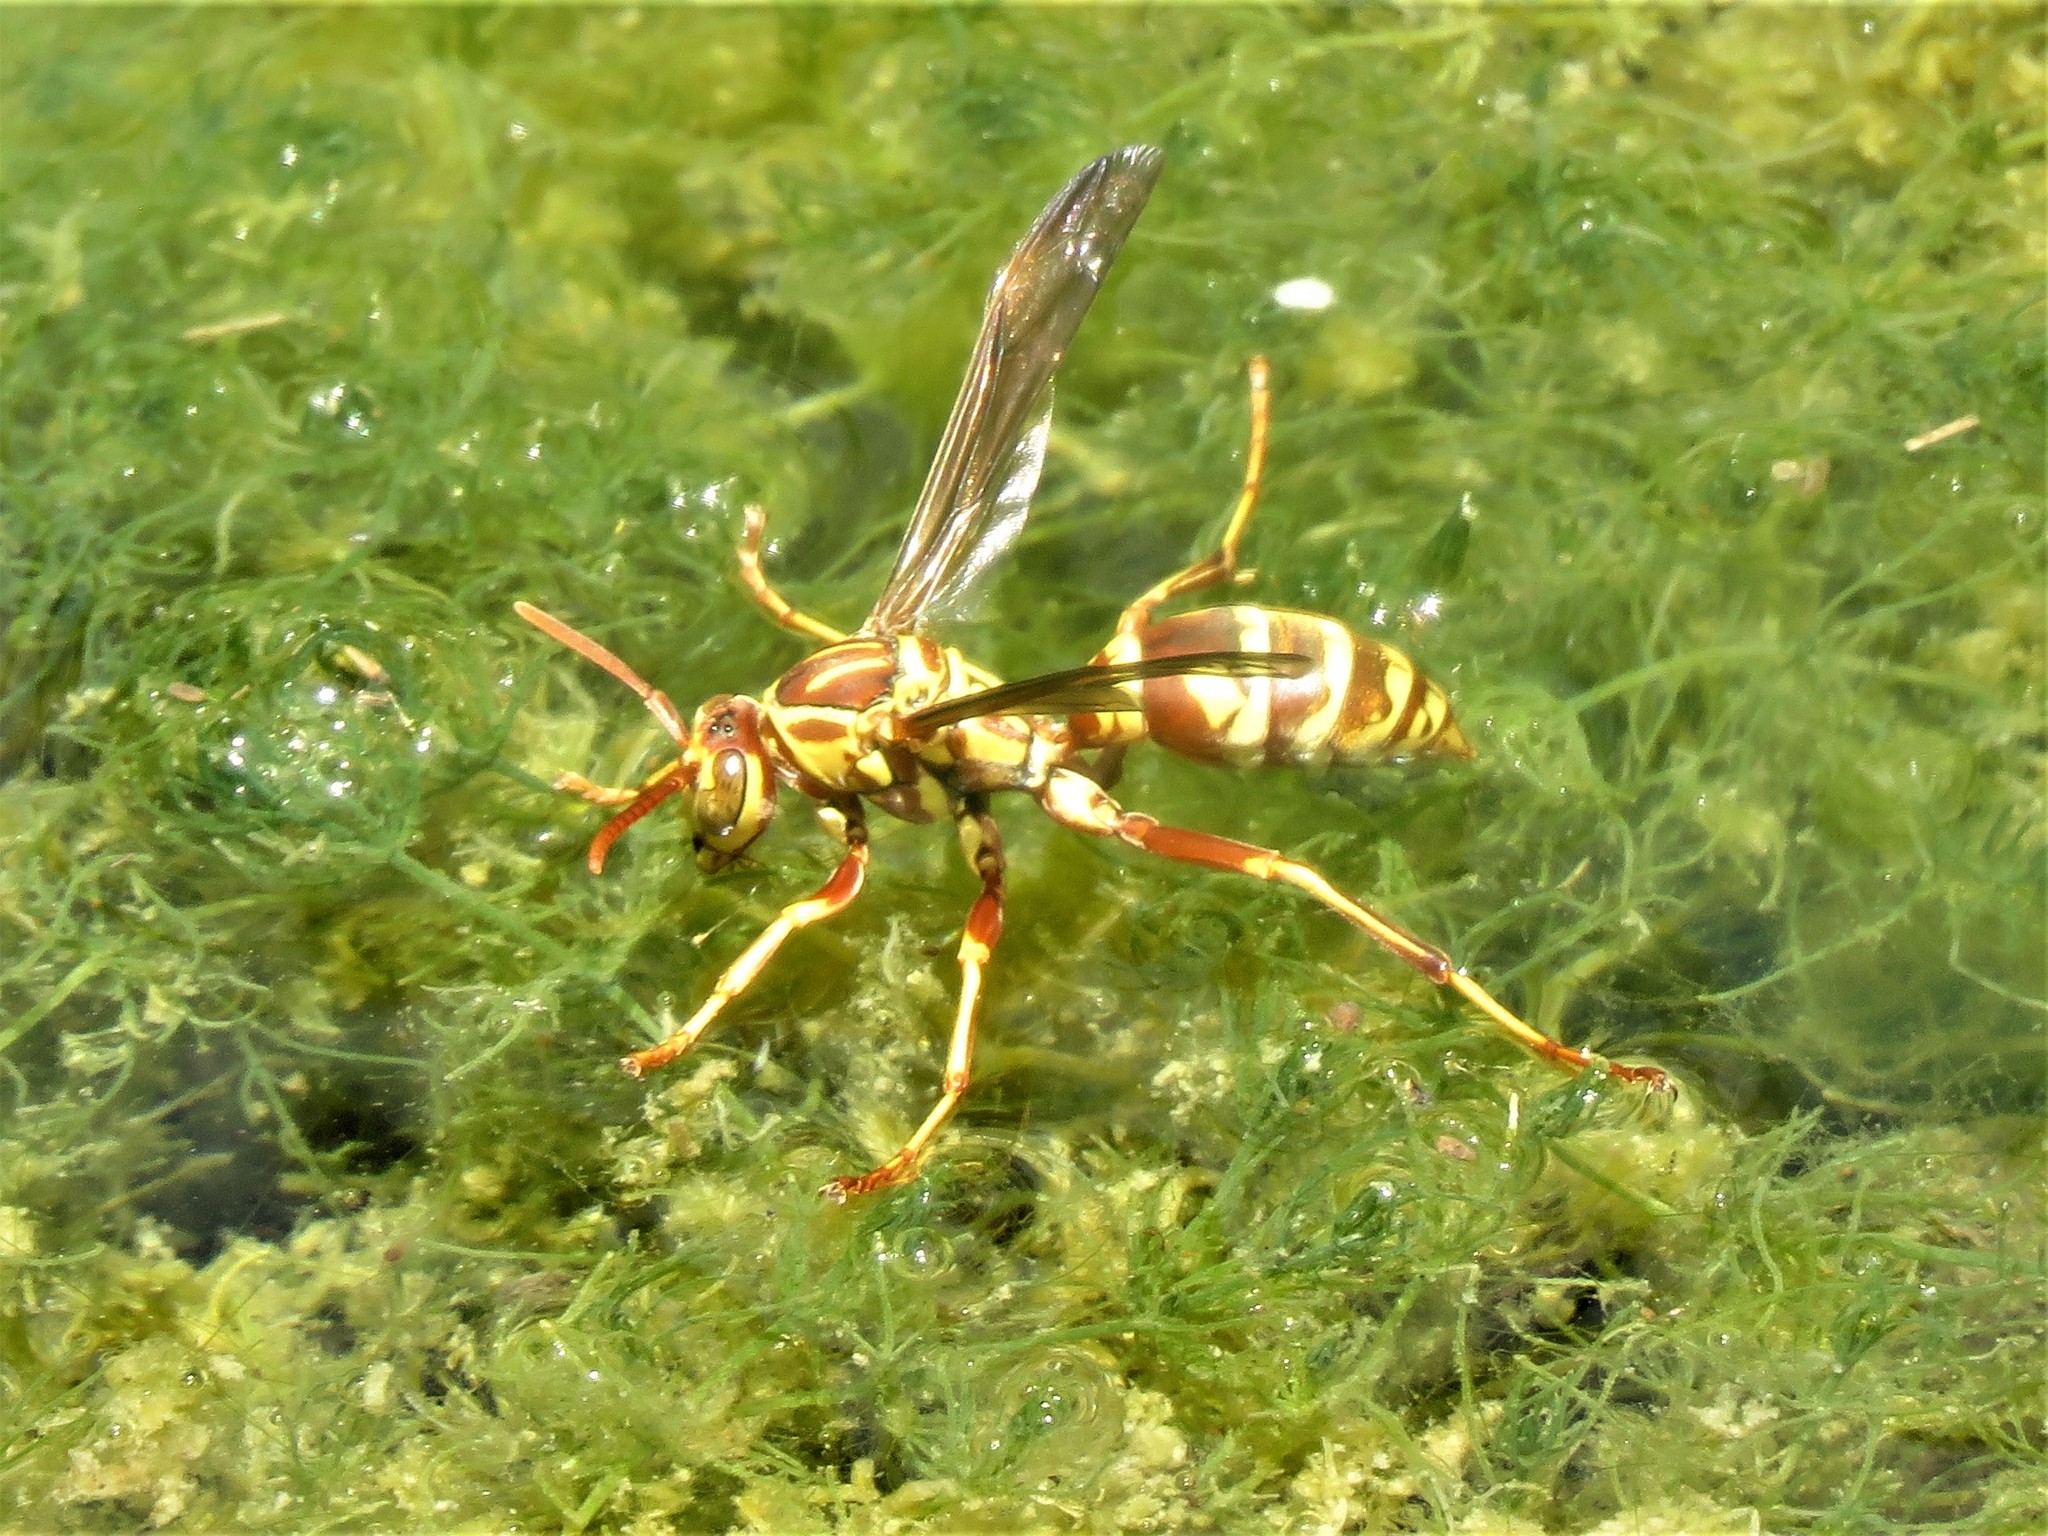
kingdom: Animalia
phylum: Arthropoda
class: Insecta
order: Hymenoptera
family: Eumenidae
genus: Polistes
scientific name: Polistes apachus
